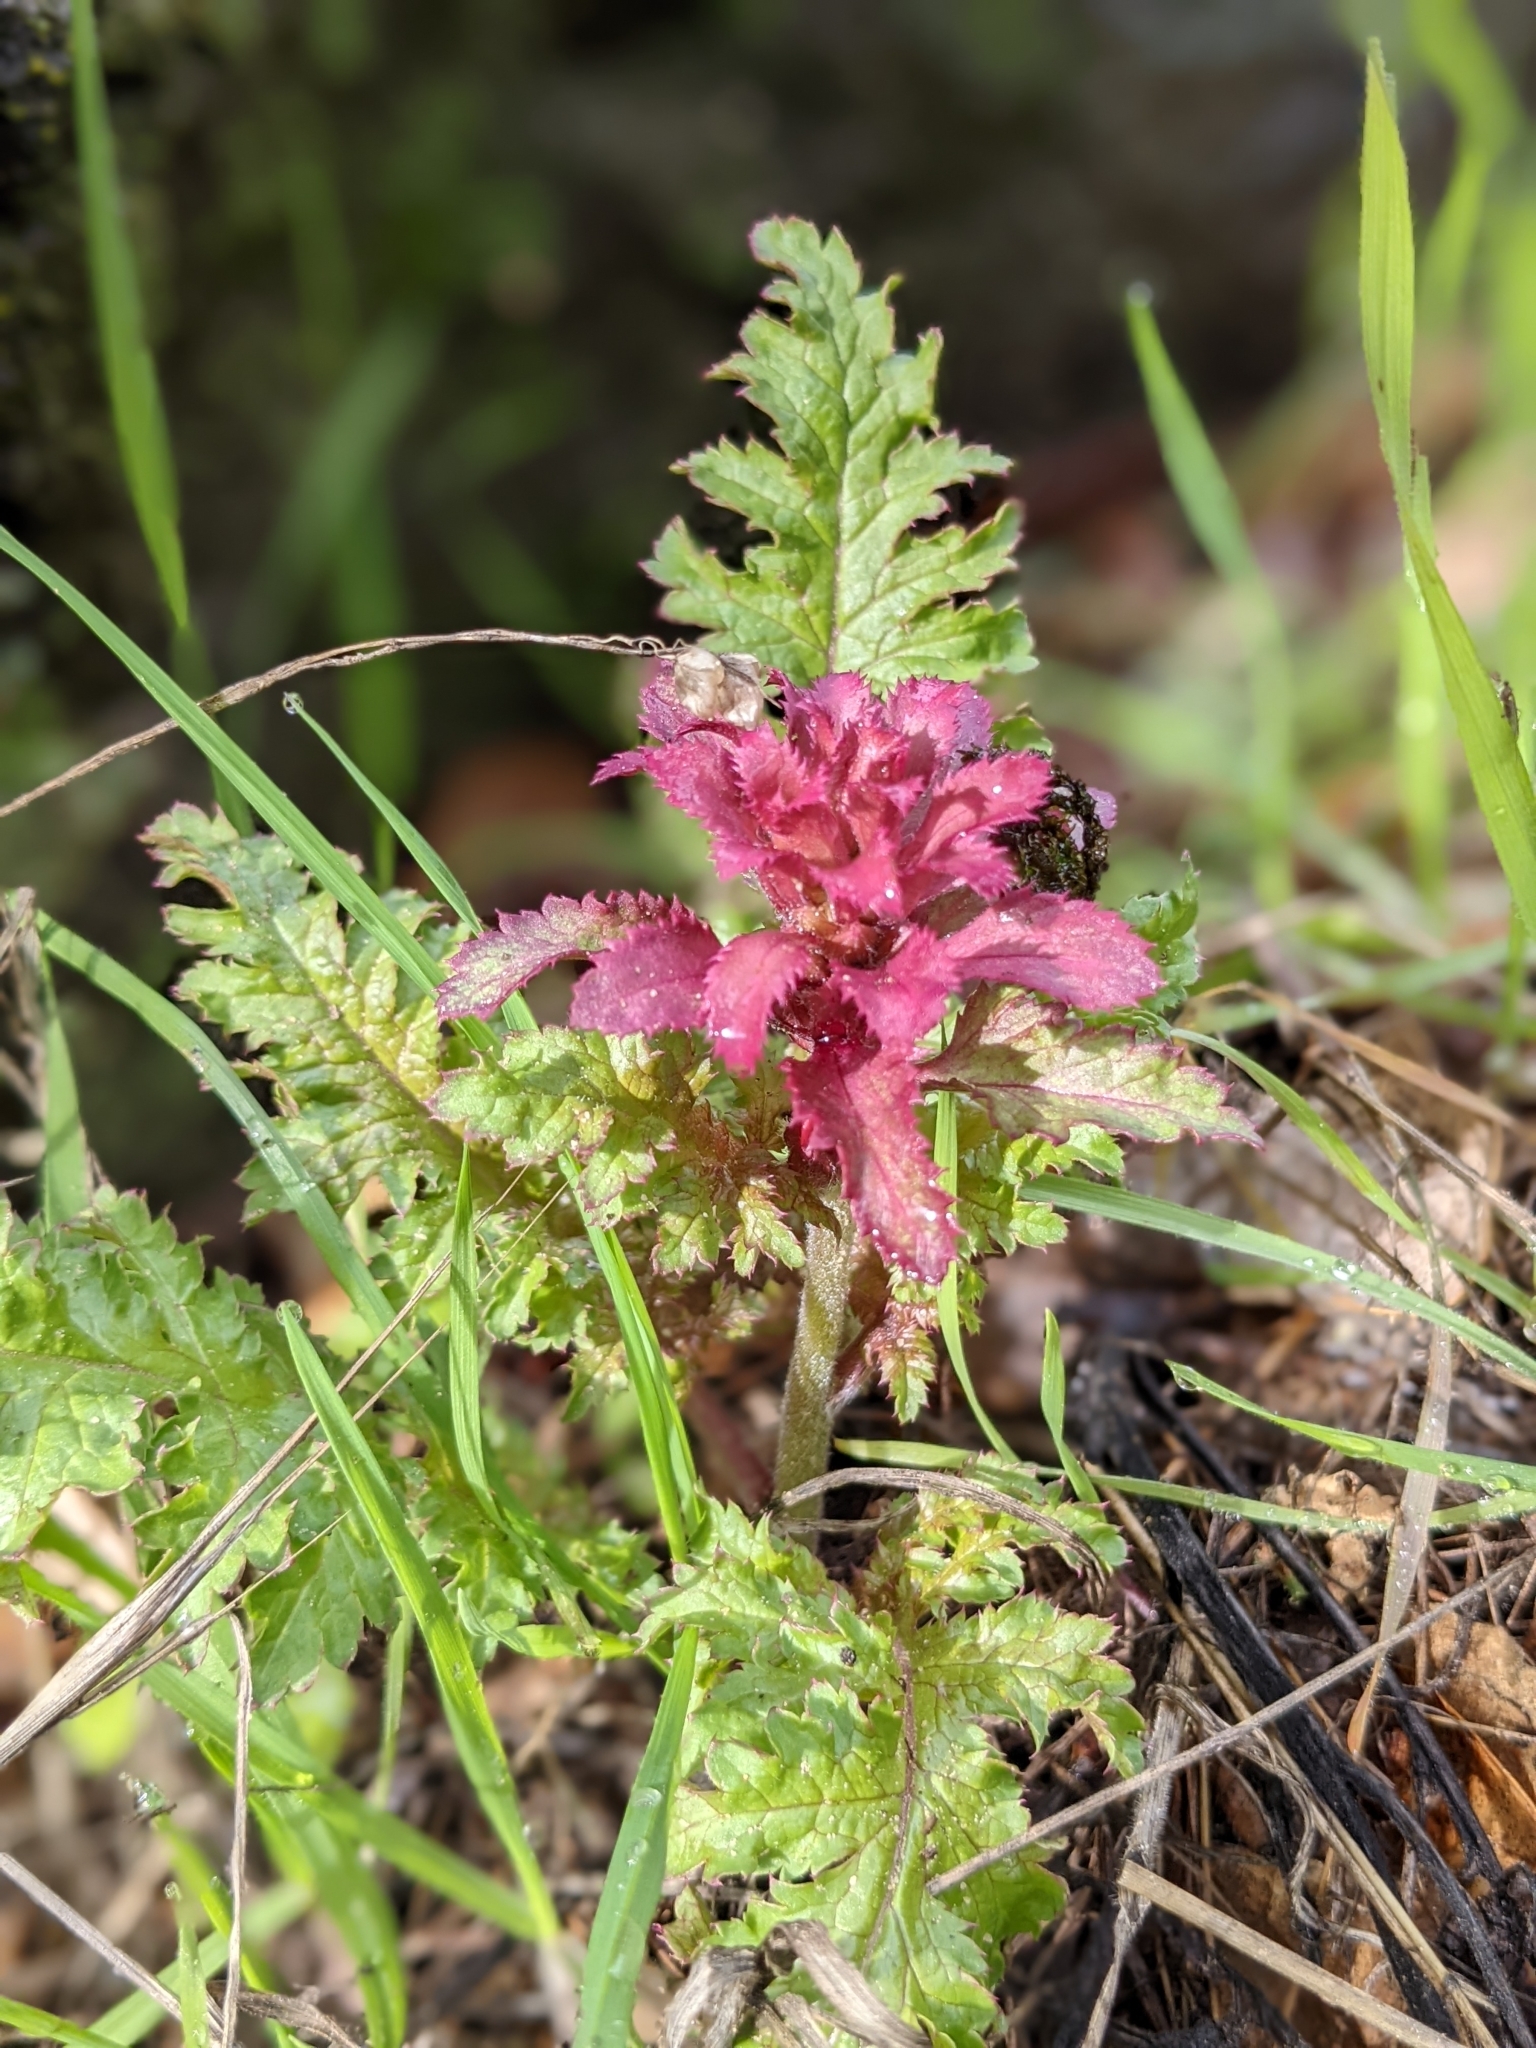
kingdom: Plantae
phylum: Tracheophyta
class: Magnoliopsida
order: Lamiales
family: Orobanchaceae
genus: Pedicularis
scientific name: Pedicularis densiflora
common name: Indian warrior
